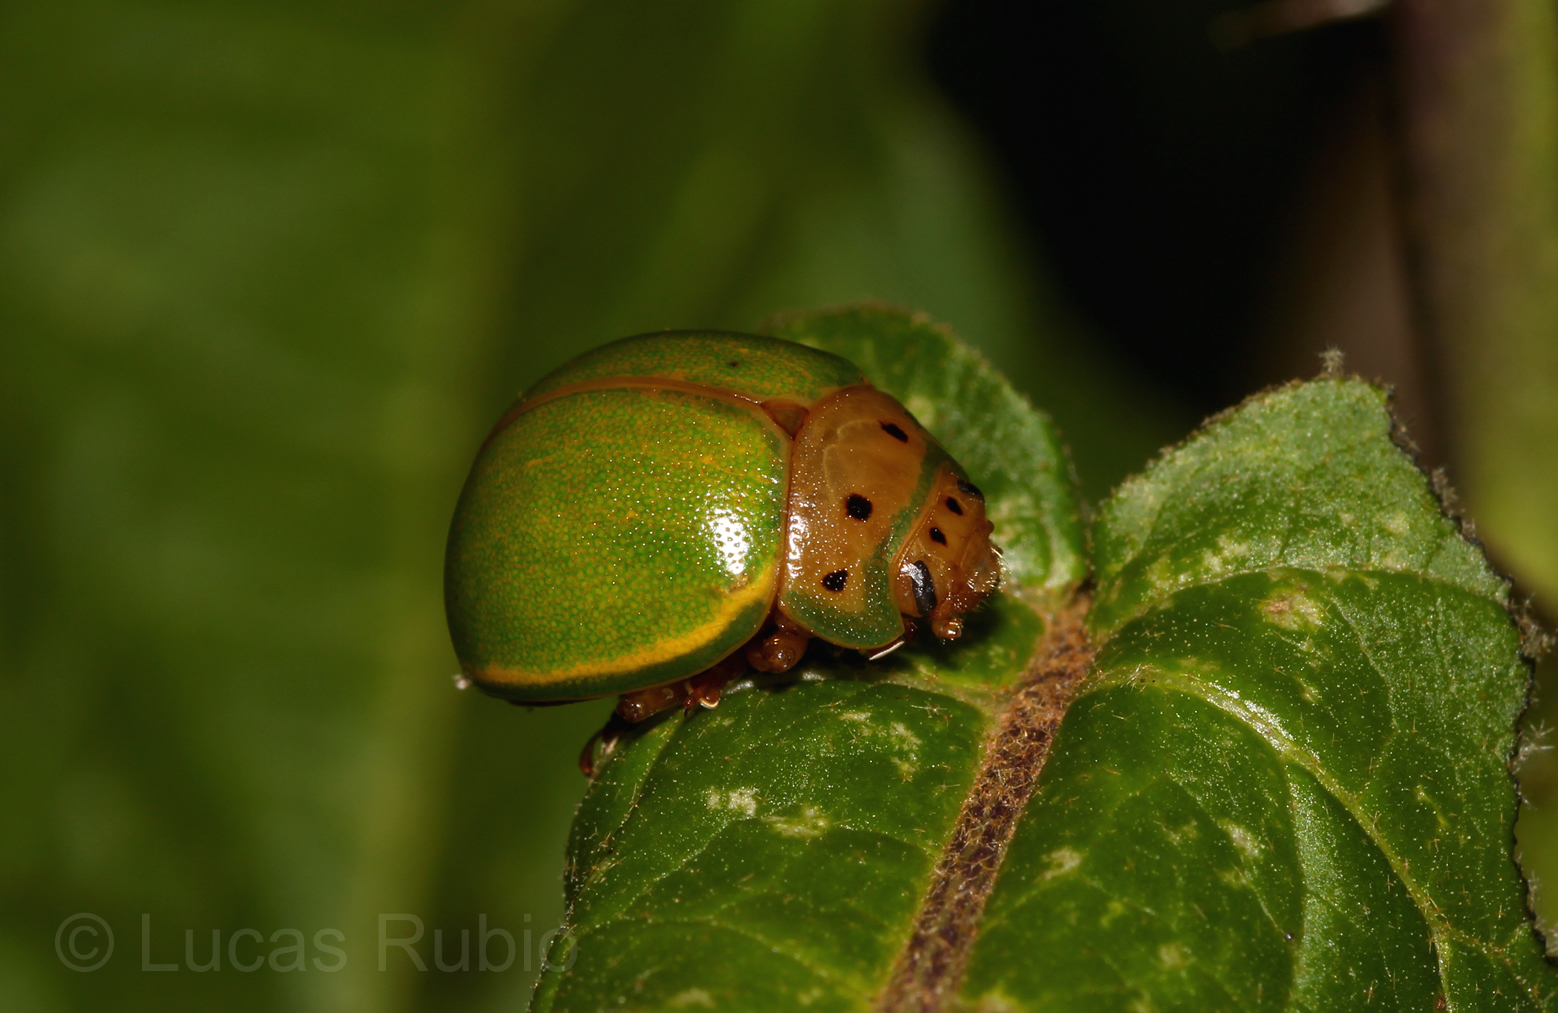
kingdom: Animalia
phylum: Arthropoda
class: Insecta
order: Coleoptera
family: Chrysomelidae
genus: Platyphora
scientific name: Platyphora
